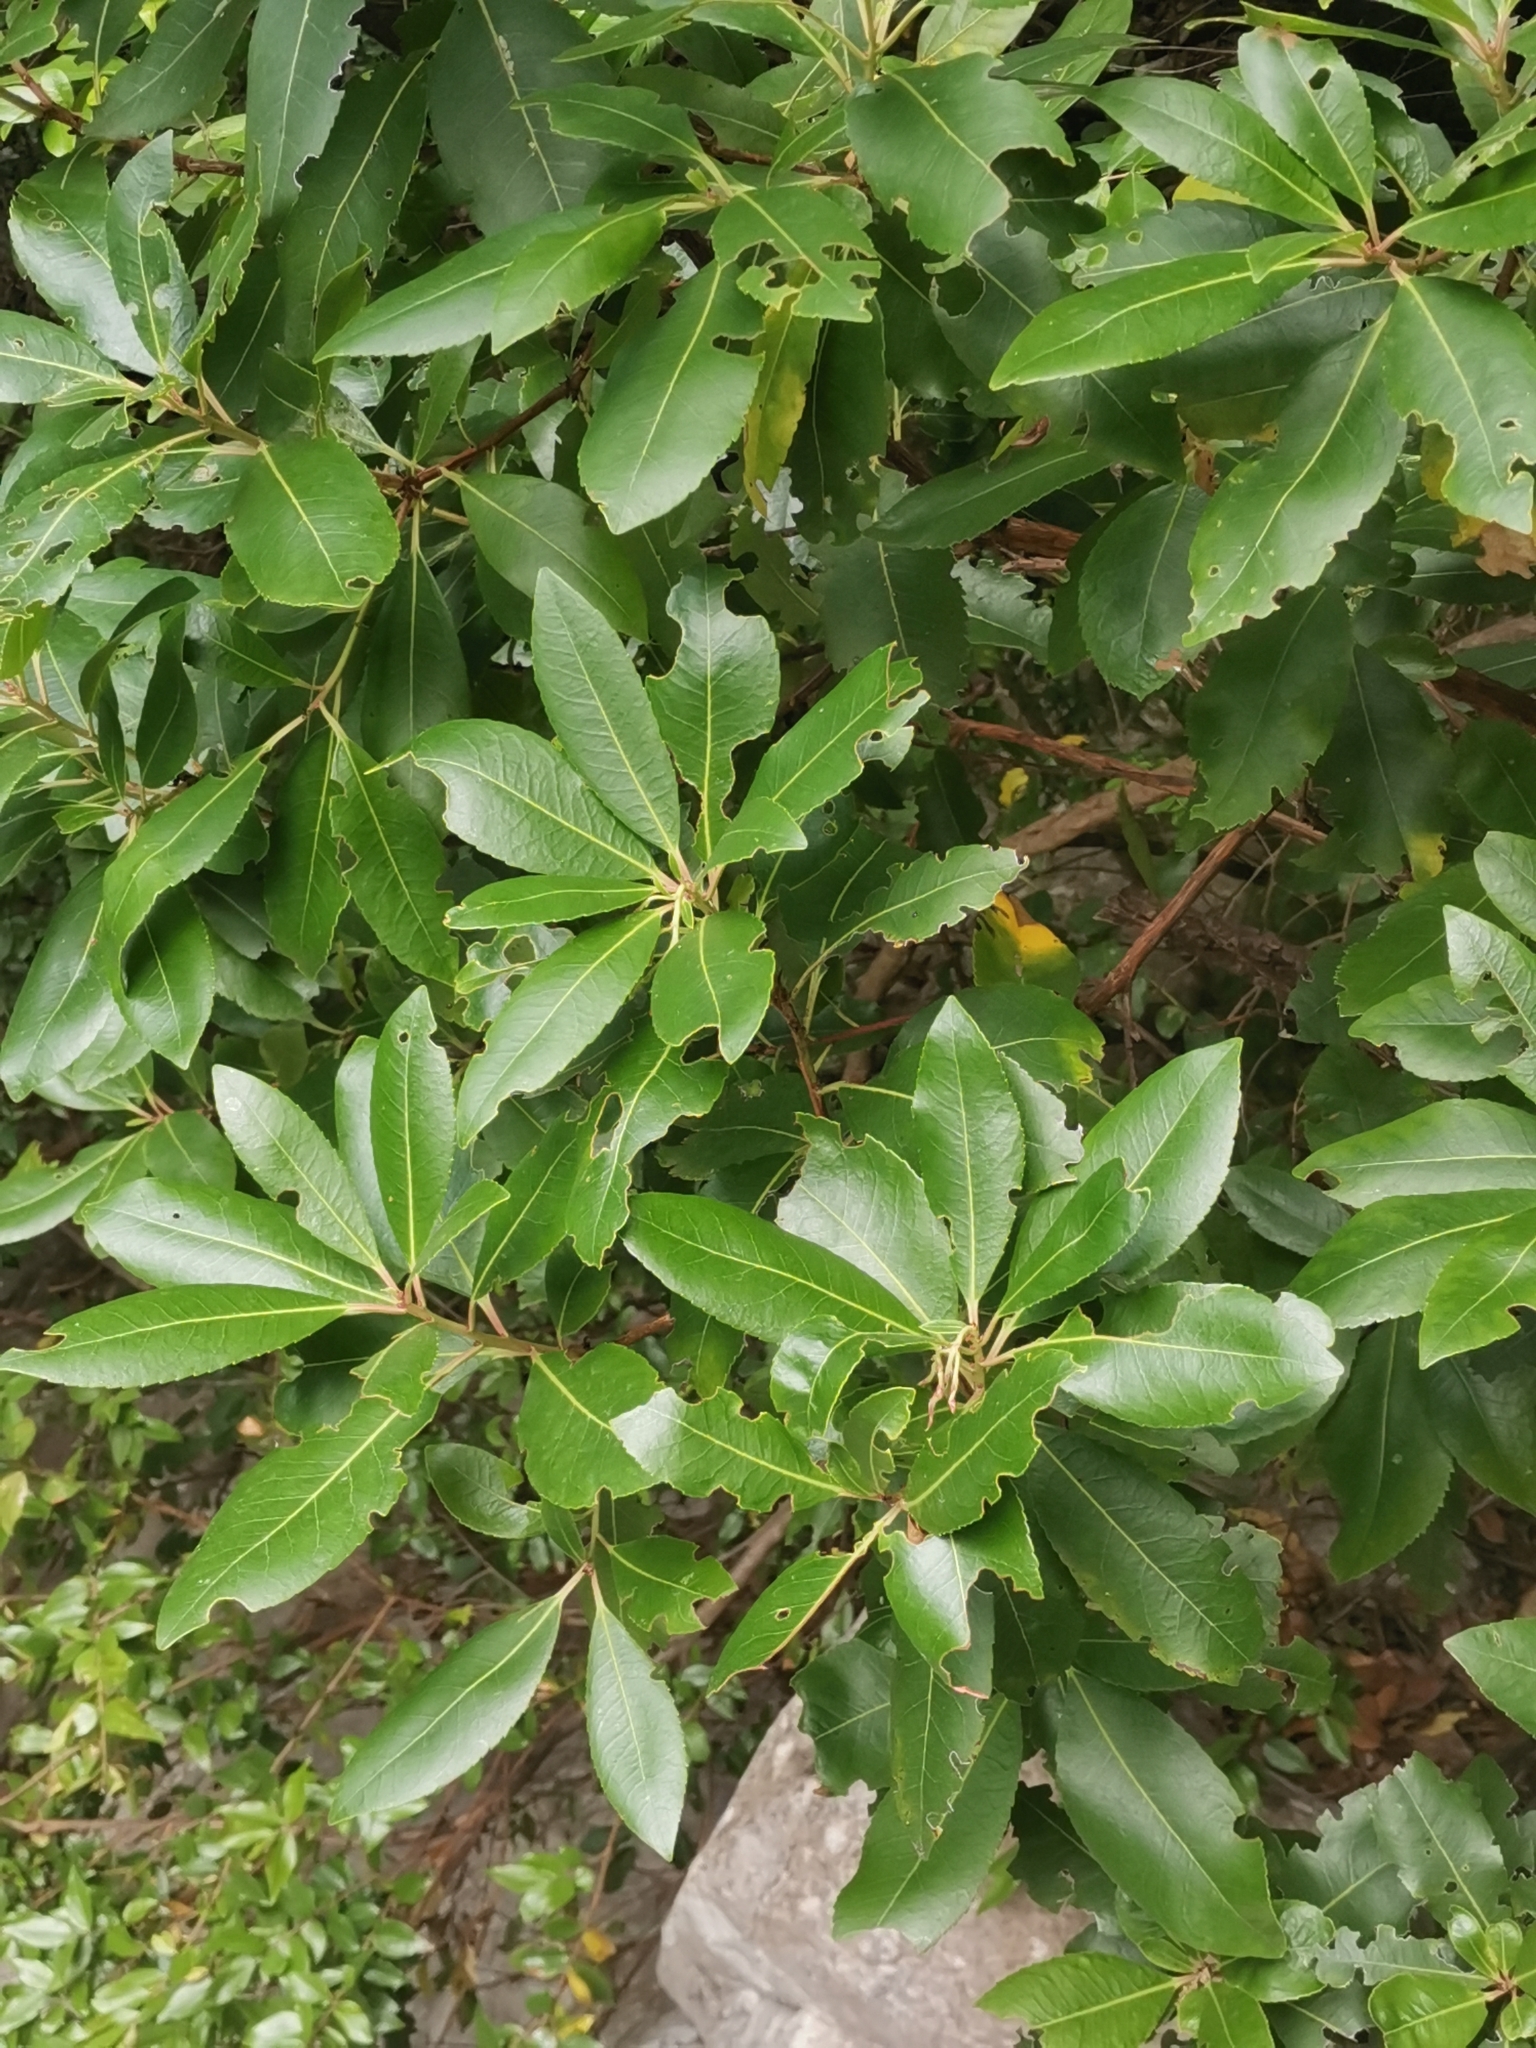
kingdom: Plantae
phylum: Tracheophyta
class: Magnoliopsida
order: Ericales
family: Ericaceae
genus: Arbutus
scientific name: Arbutus unedo
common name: Strawberry-tree
